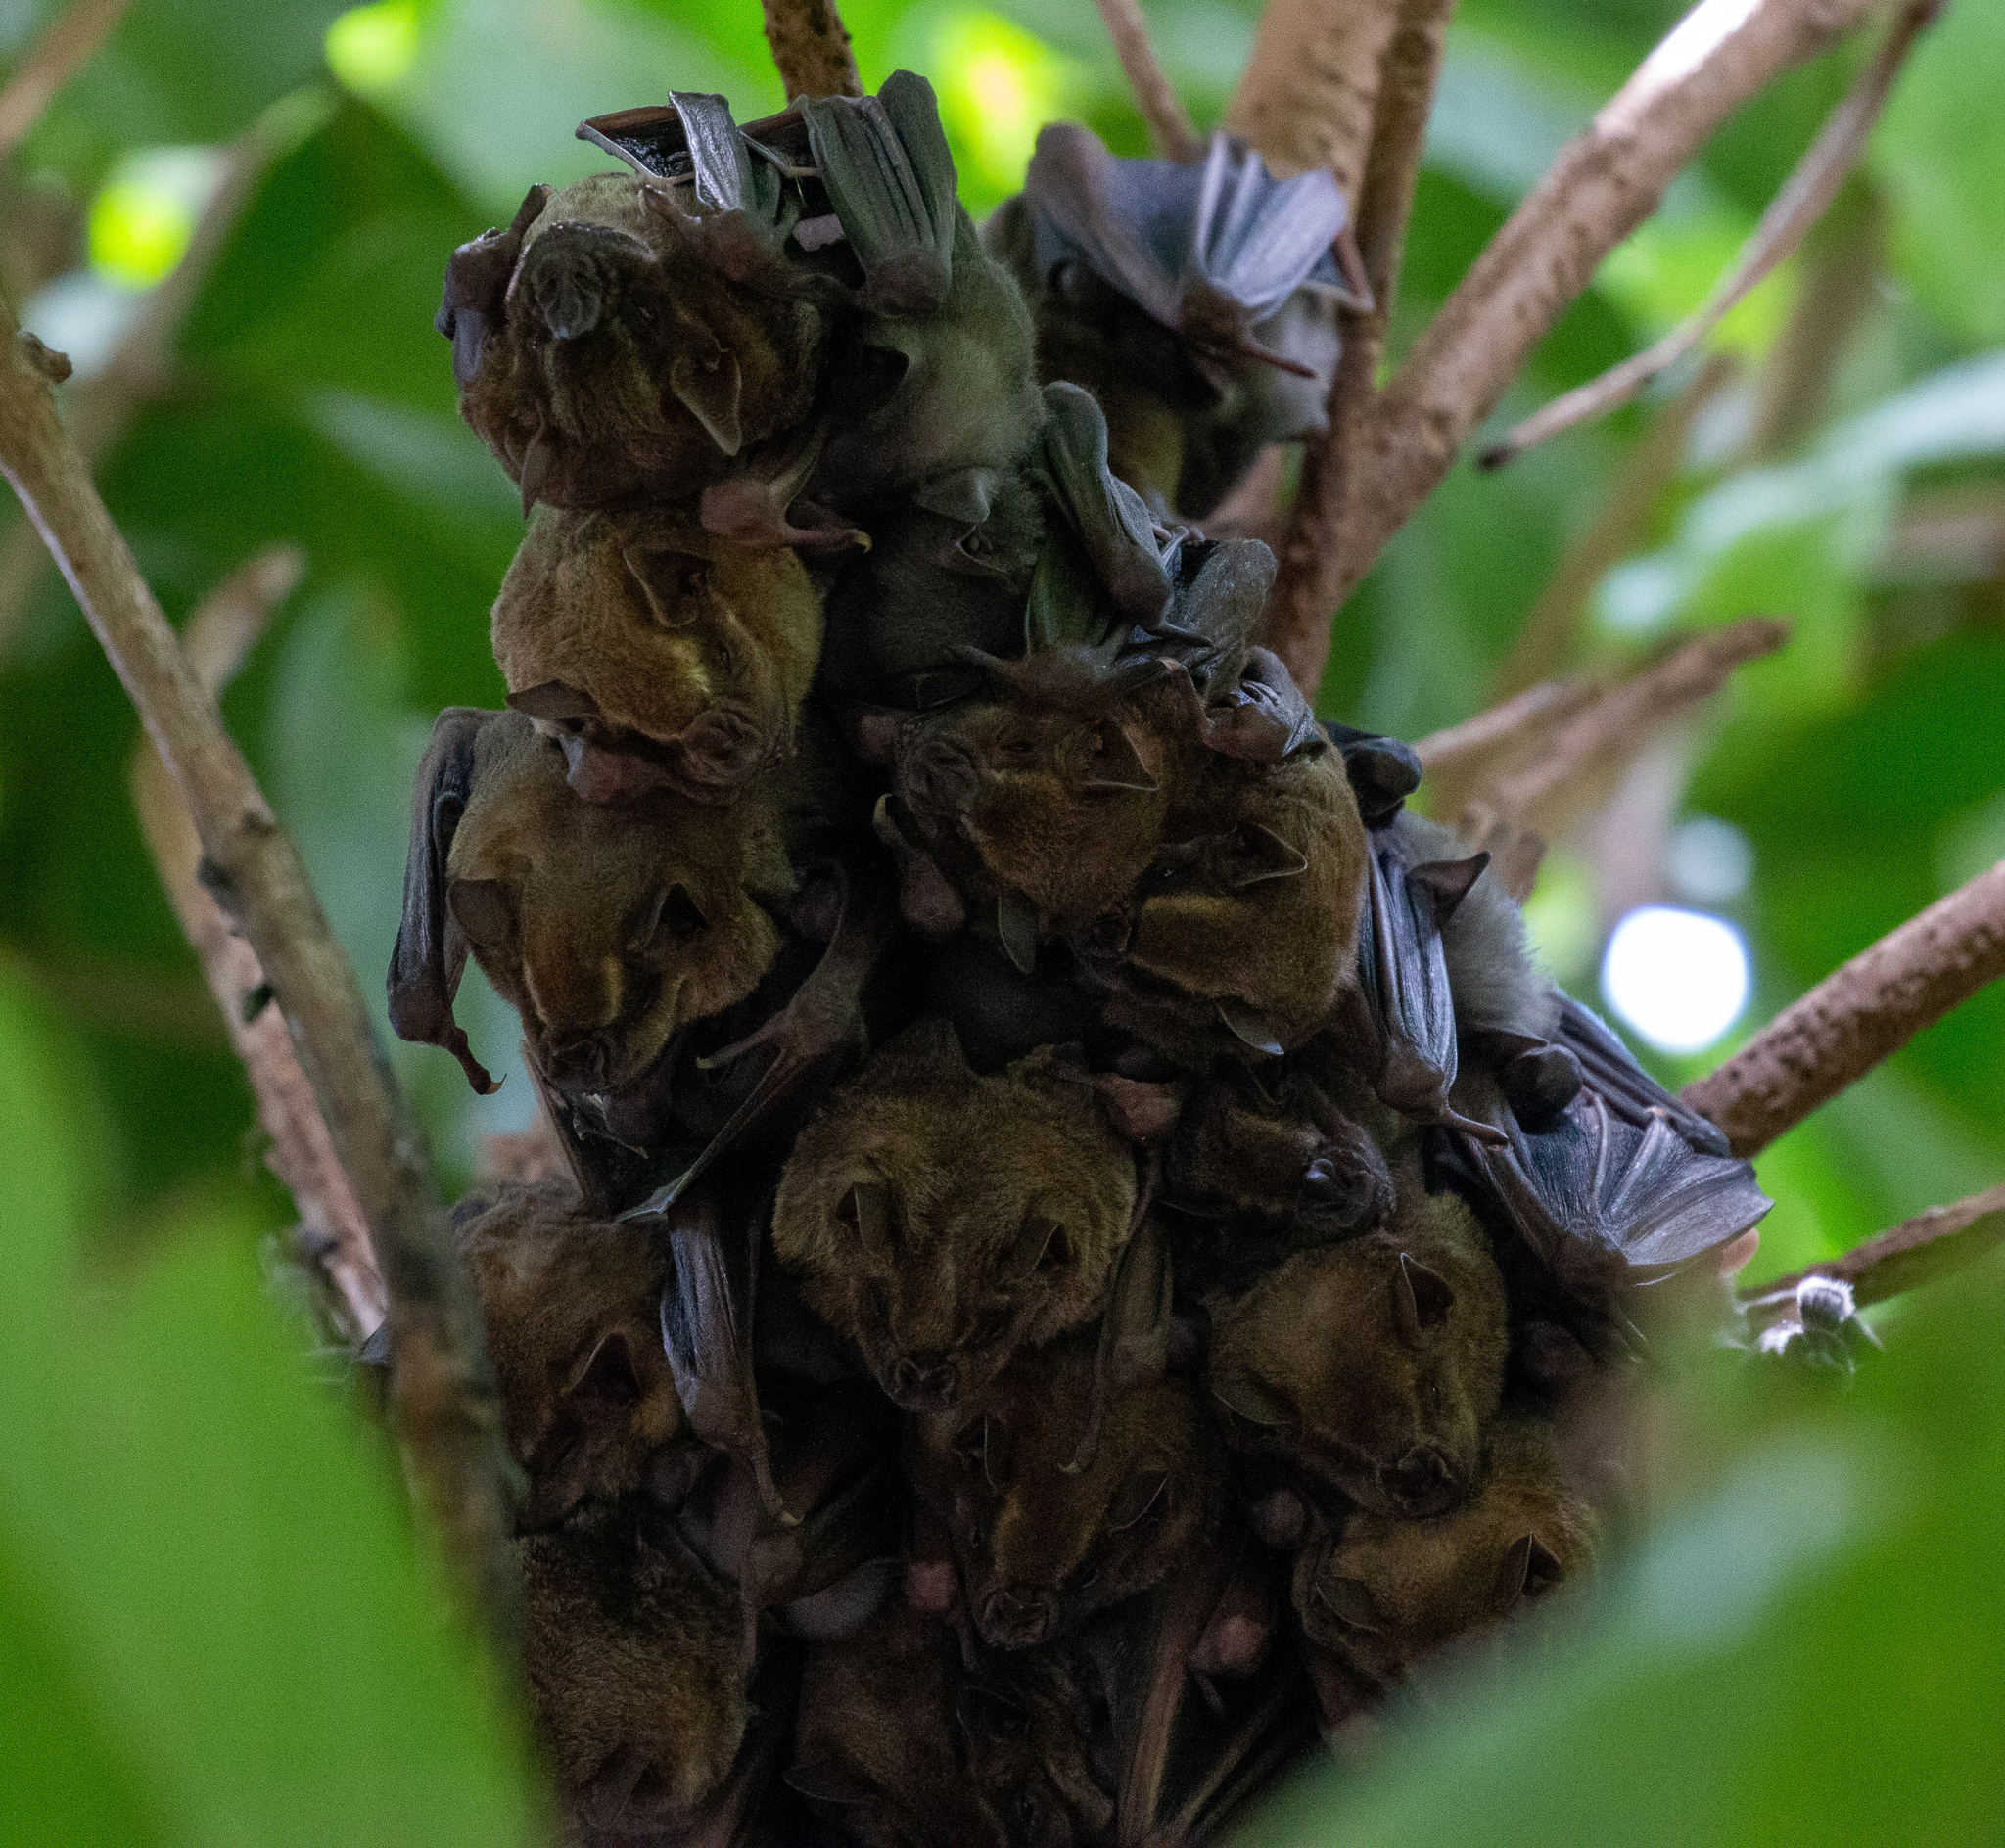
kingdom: Animalia
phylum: Chordata
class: Mammalia
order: Chiroptera
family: Phyllostomidae
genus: Artibeus
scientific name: Artibeus lituratus
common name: Great fruit-eating bat
